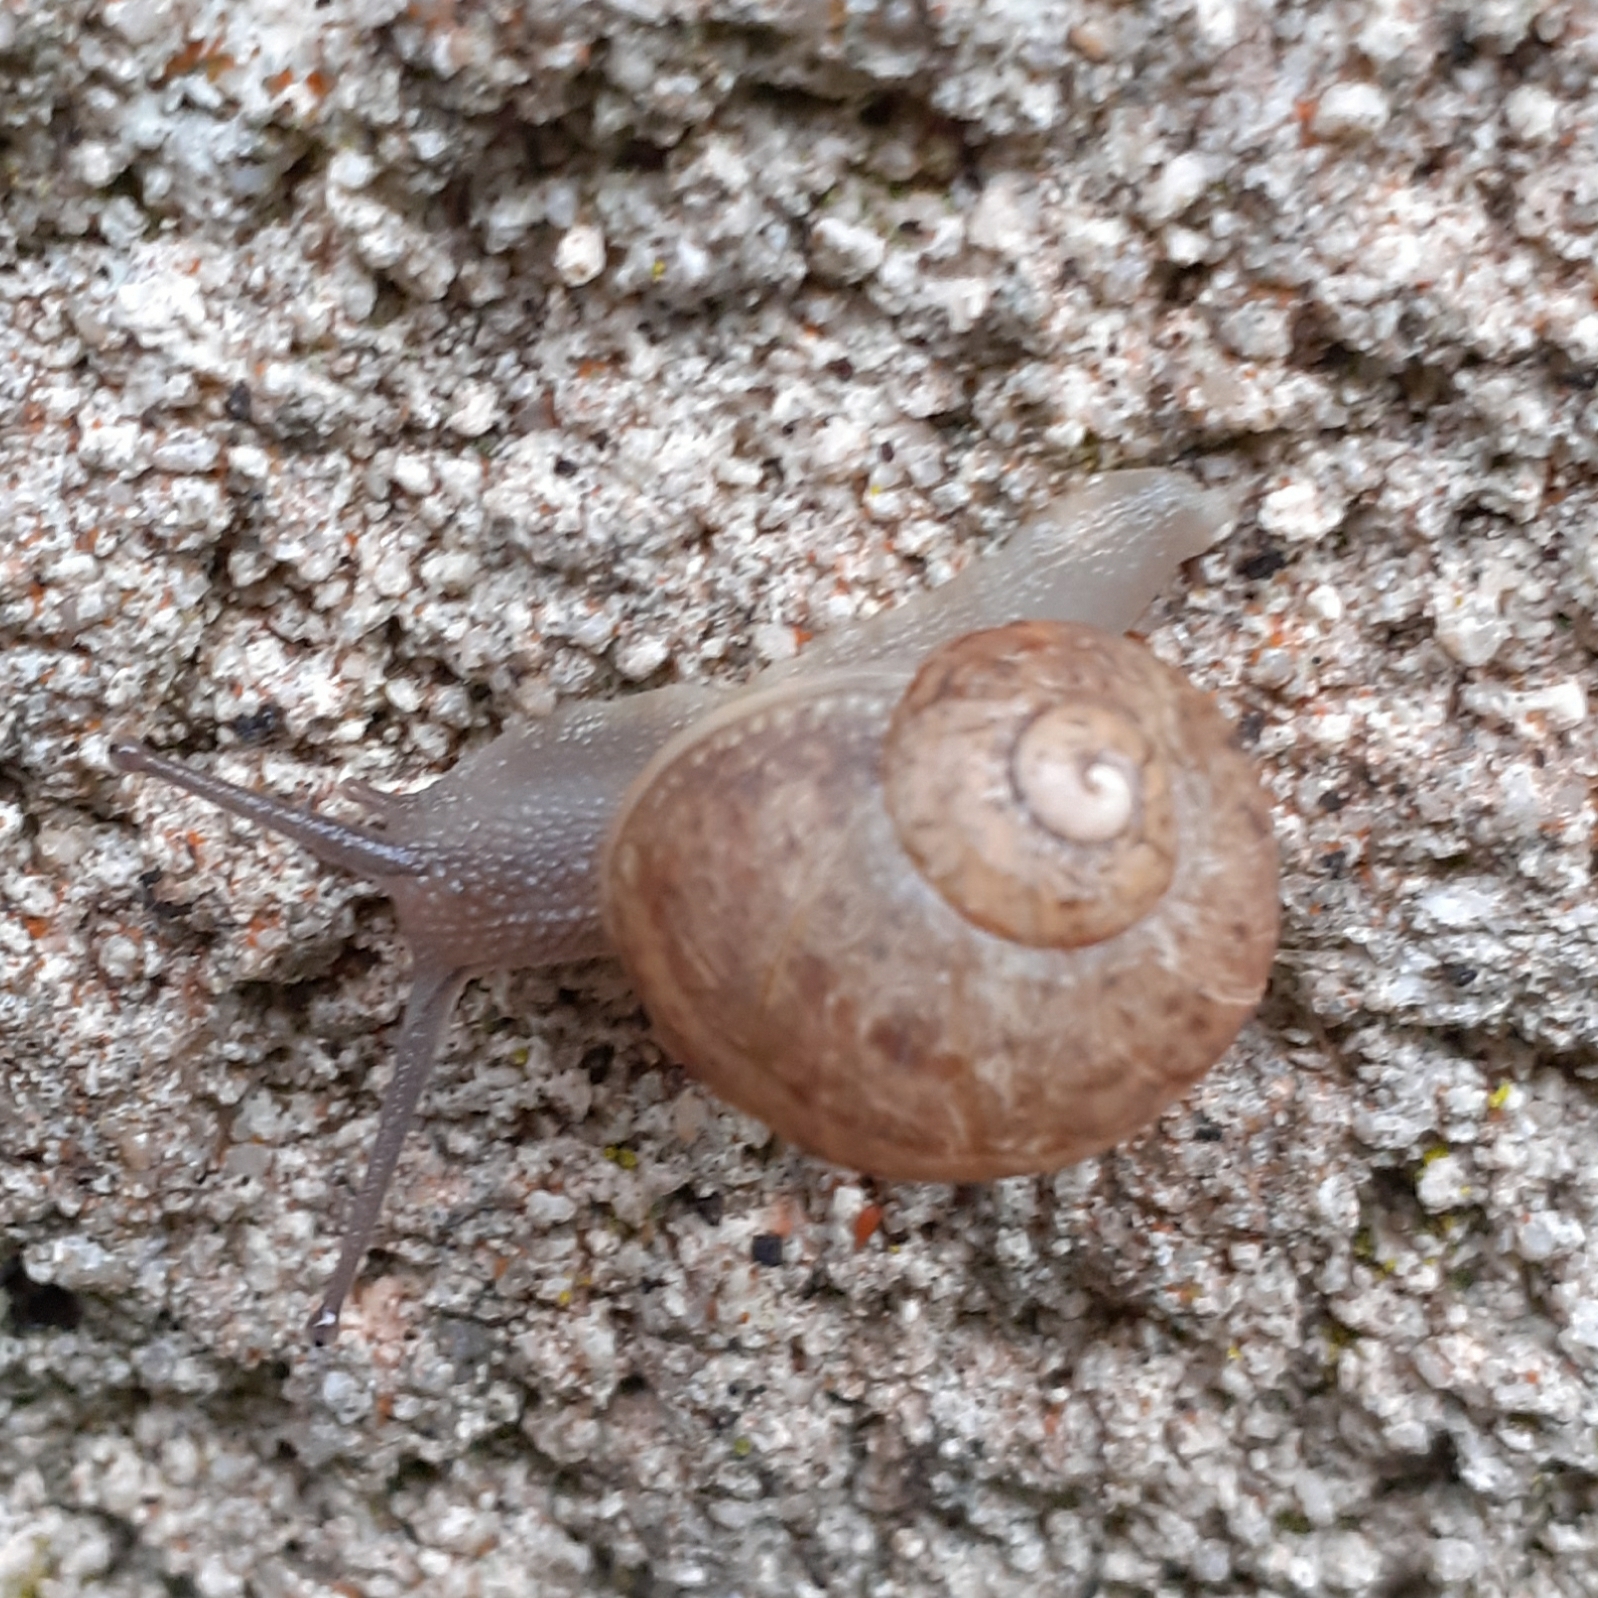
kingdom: Animalia
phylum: Mollusca
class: Gastropoda
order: Stylommatophora
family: Helicidae
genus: Cornu
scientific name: Cornu aspersum
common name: Brown garden snail
